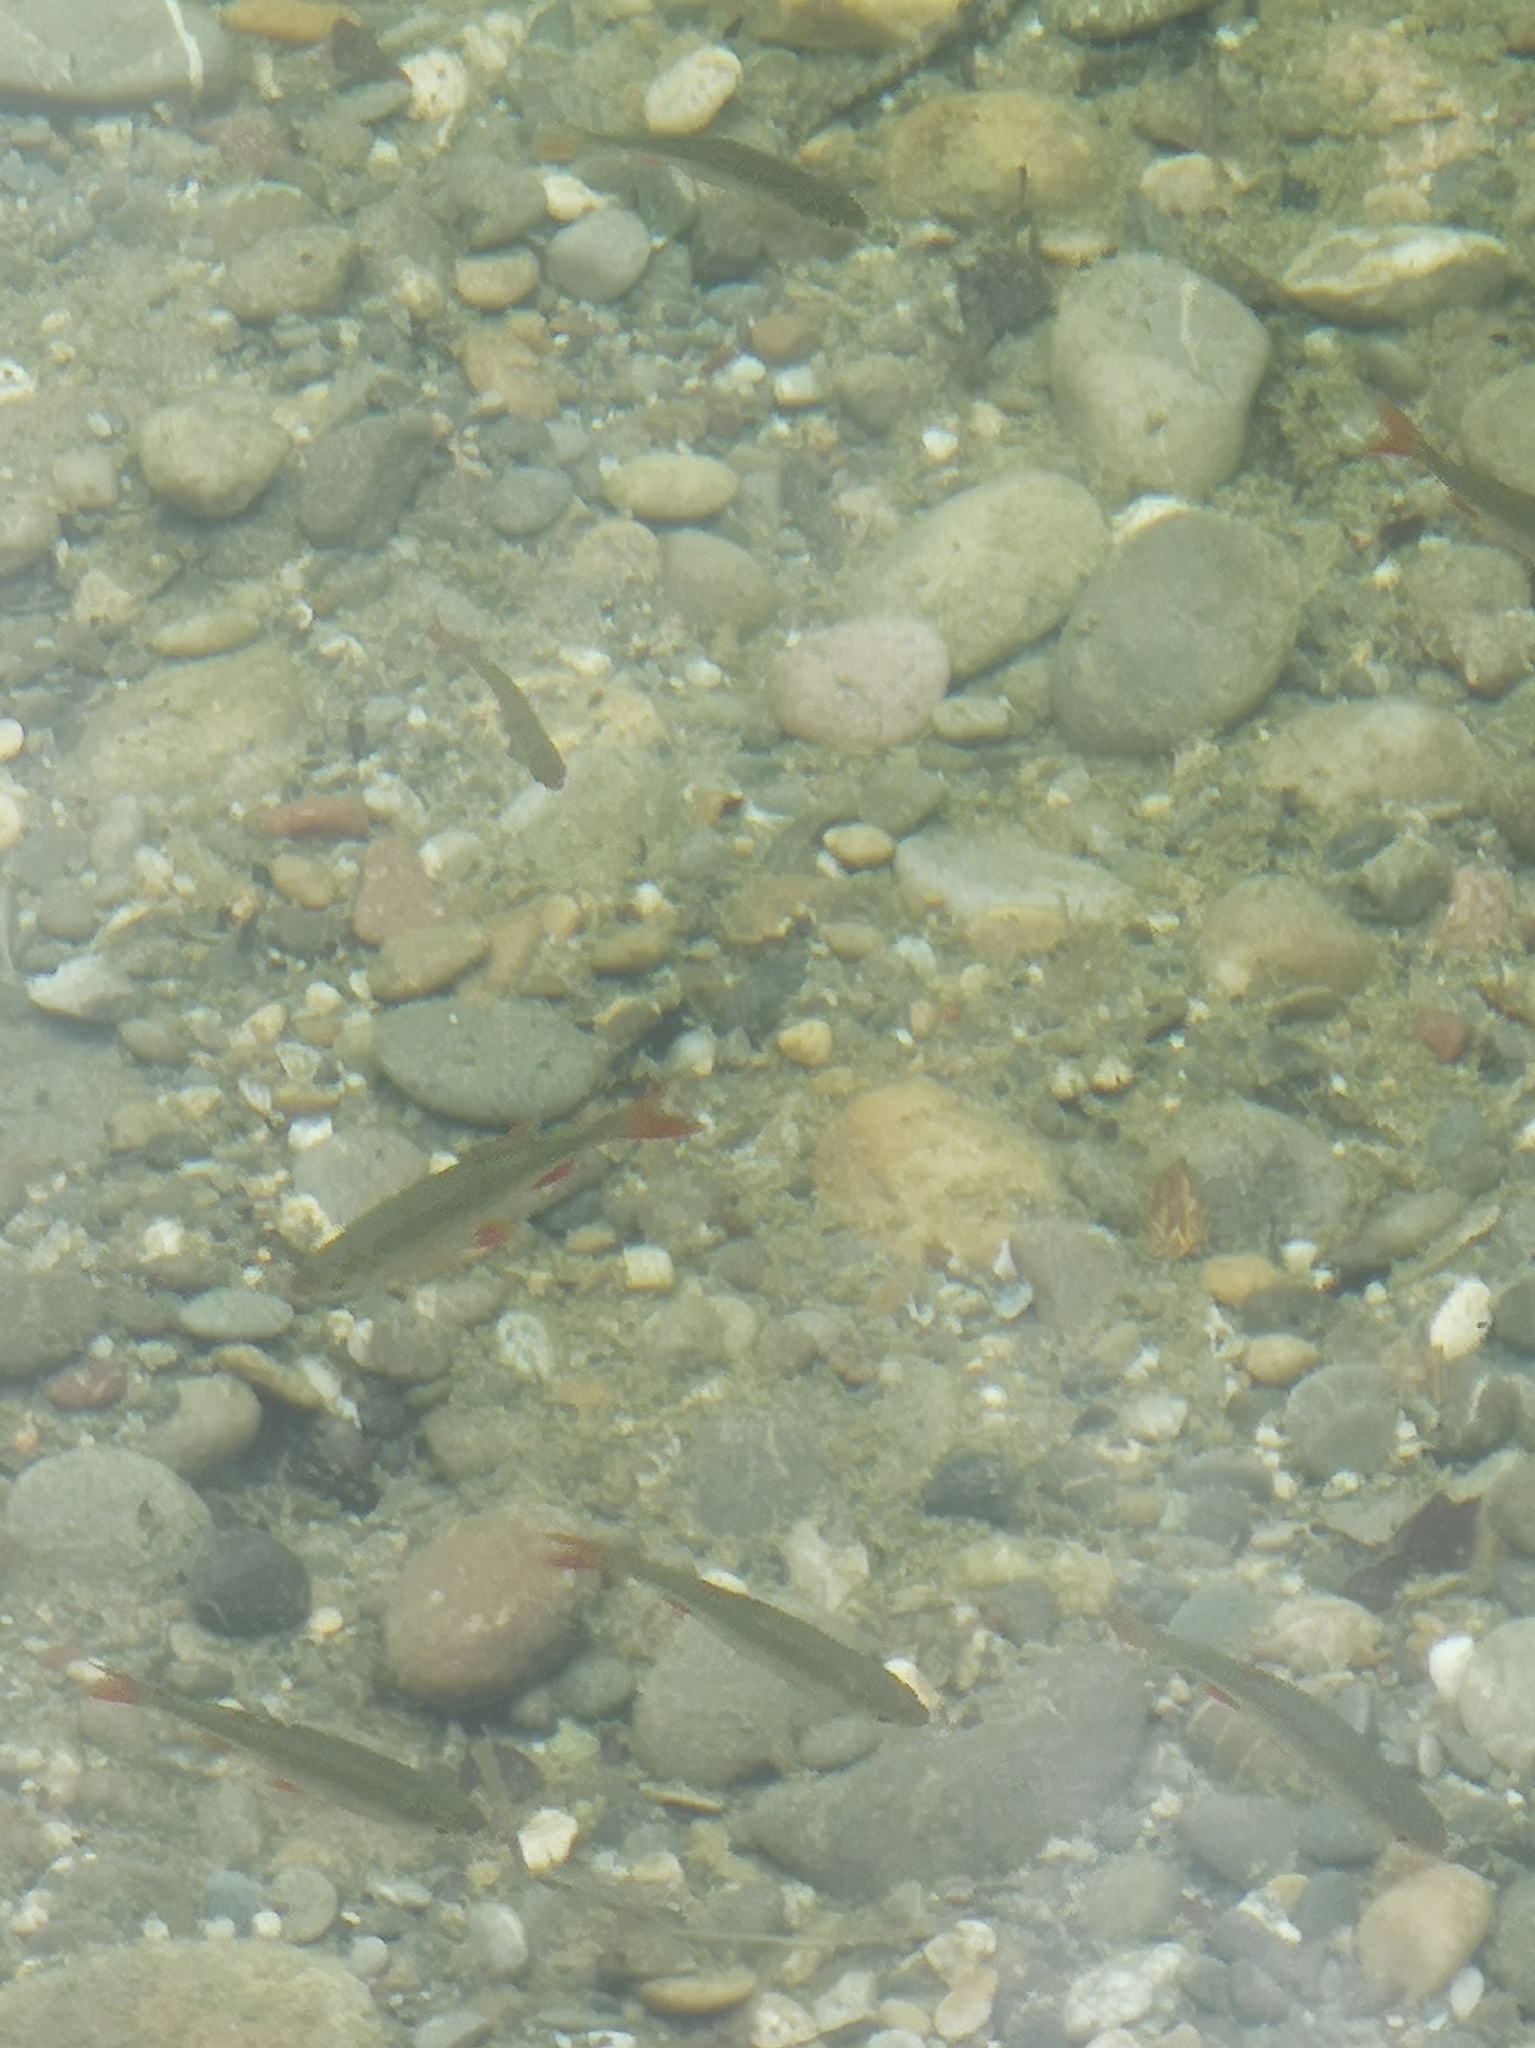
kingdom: Animalia
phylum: Chordata
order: Cypriniformes
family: Cyprinidae
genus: Scardinius
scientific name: Scardinius erythrophthalmus
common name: Rudd
